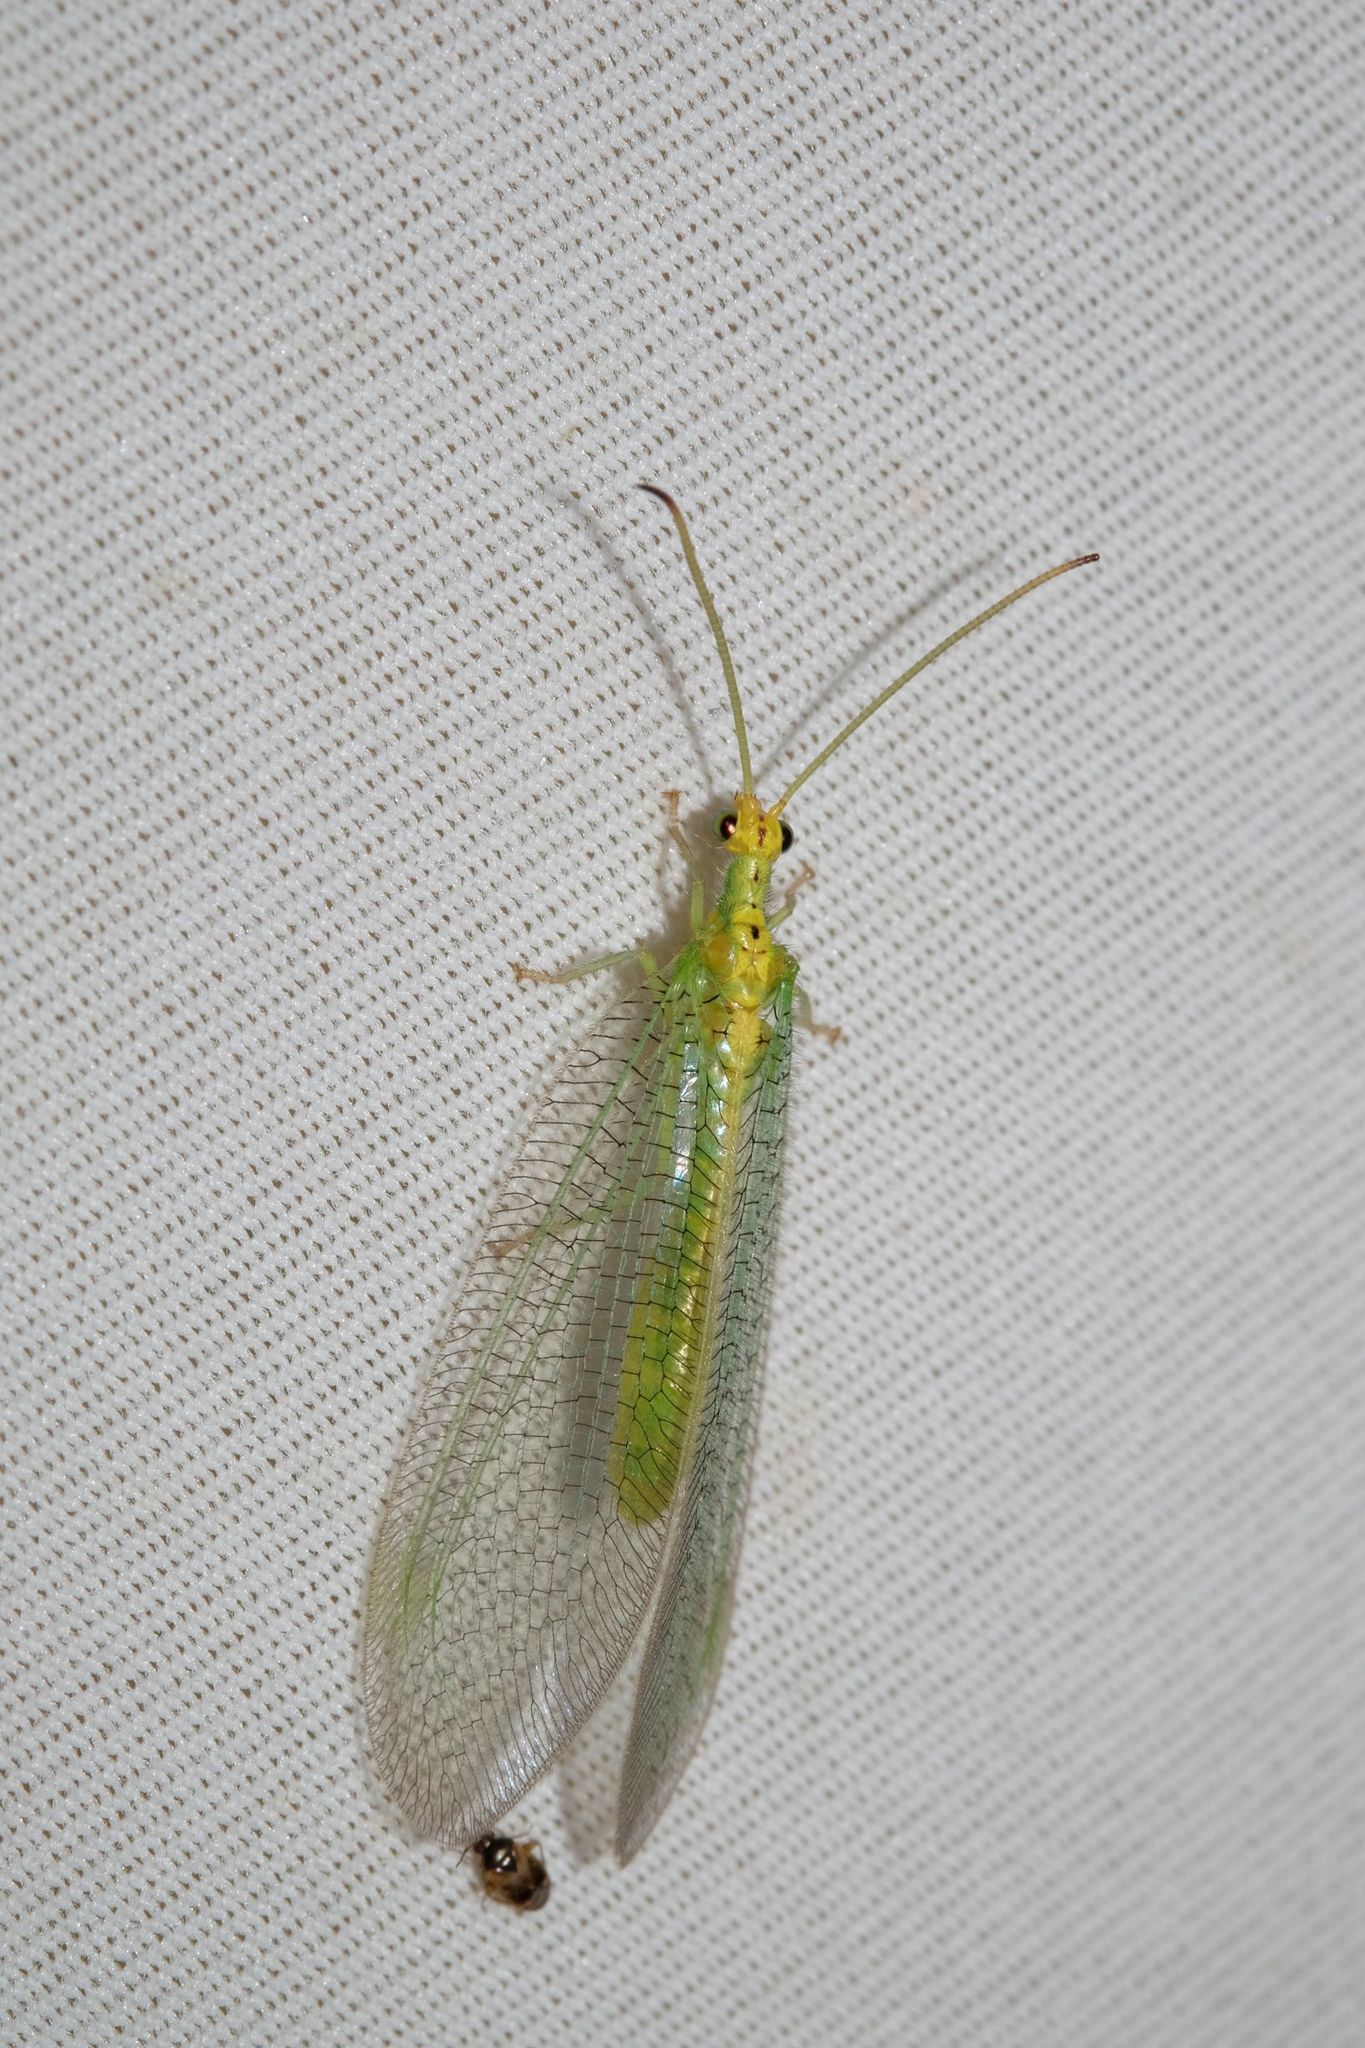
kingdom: Animalia
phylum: Arthropoda
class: Insecta
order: Neuroptera
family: Nymphidae
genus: Osmylops
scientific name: Osmylops sejunctus
